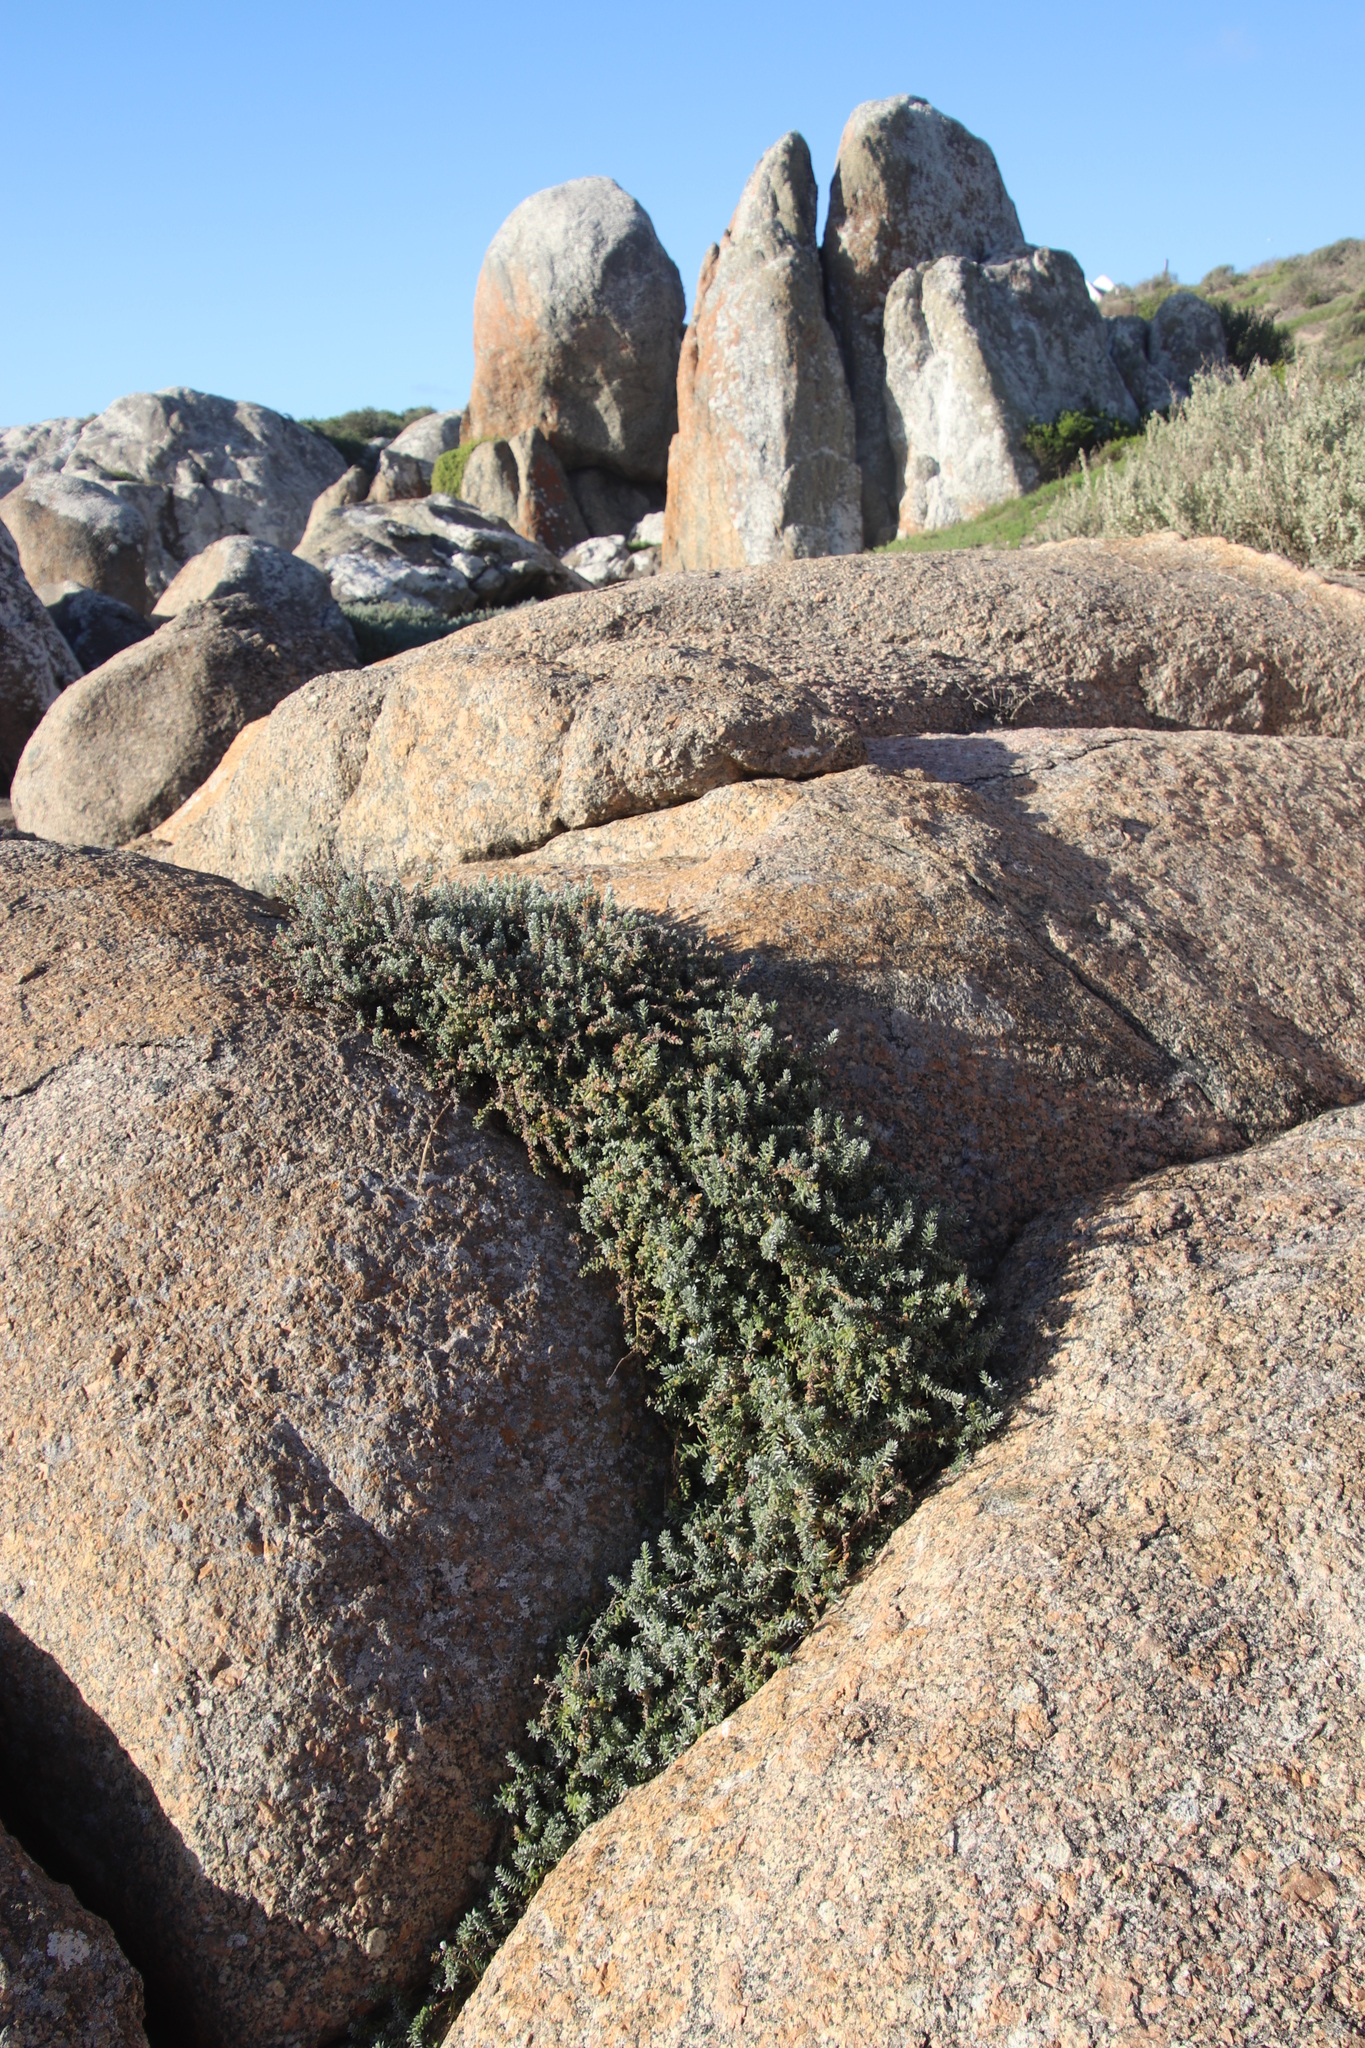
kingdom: Plantae
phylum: Tracheophyta
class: Magnoliopsida
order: Caryophyllales
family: Amaranthaceae
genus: Chenolea
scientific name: Chenolea diffusa
